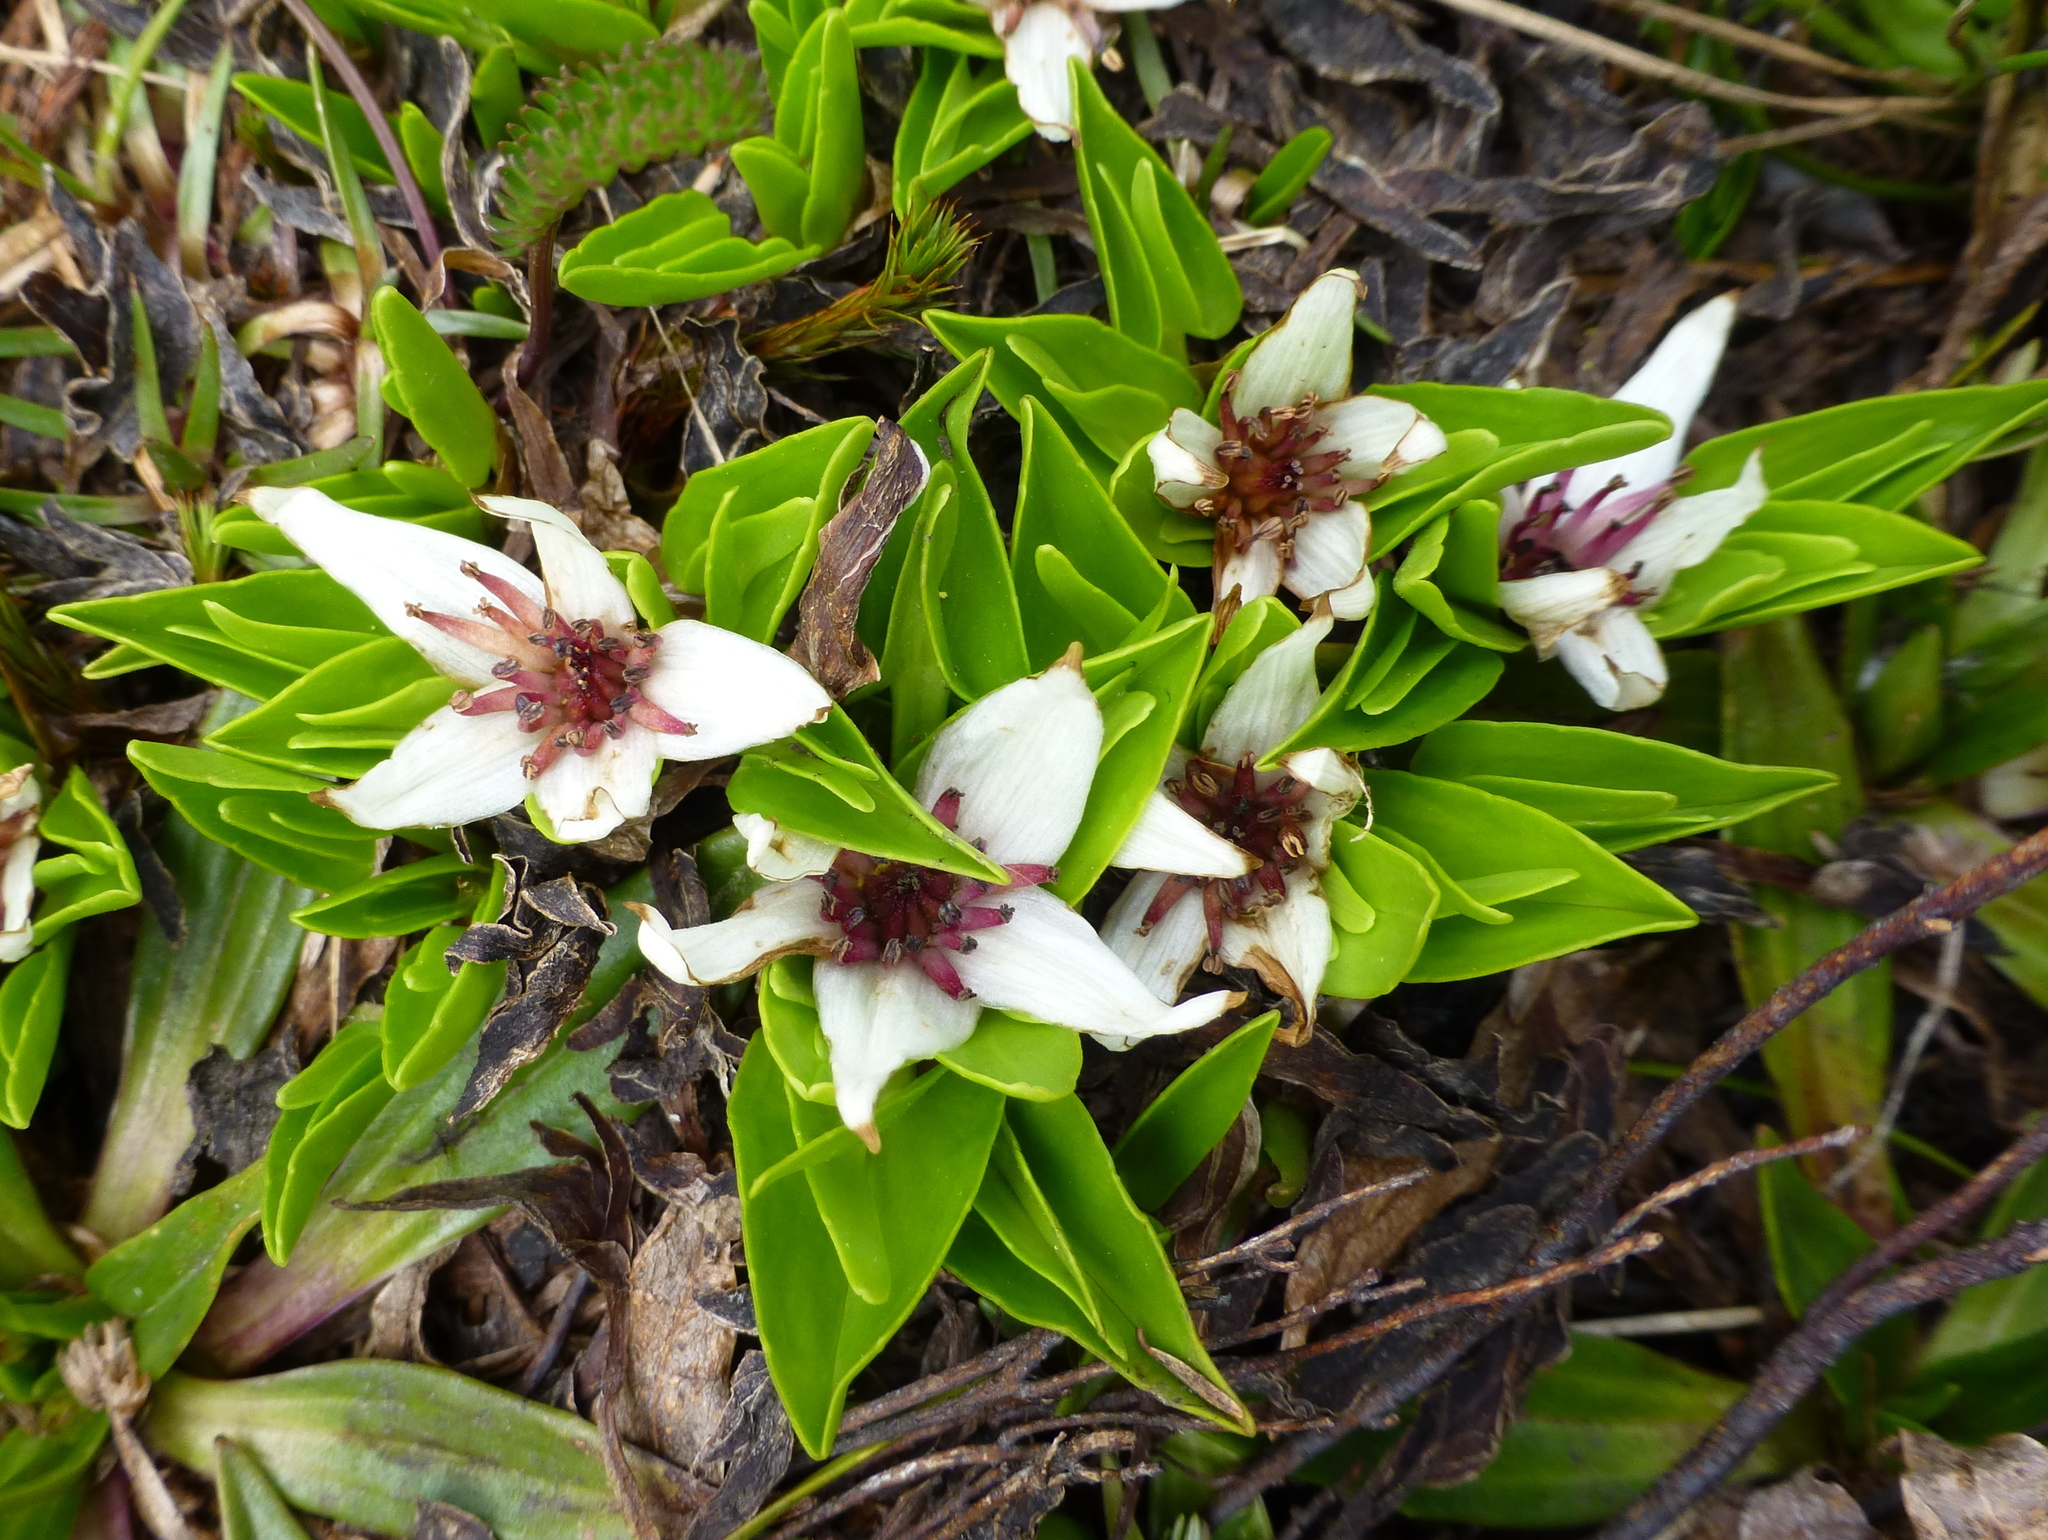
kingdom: Plantae
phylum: Tracheophyta
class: Magnoliopsida
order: Ranunculales
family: Ranunculaceae
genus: Caltha
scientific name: Caltha introloba
